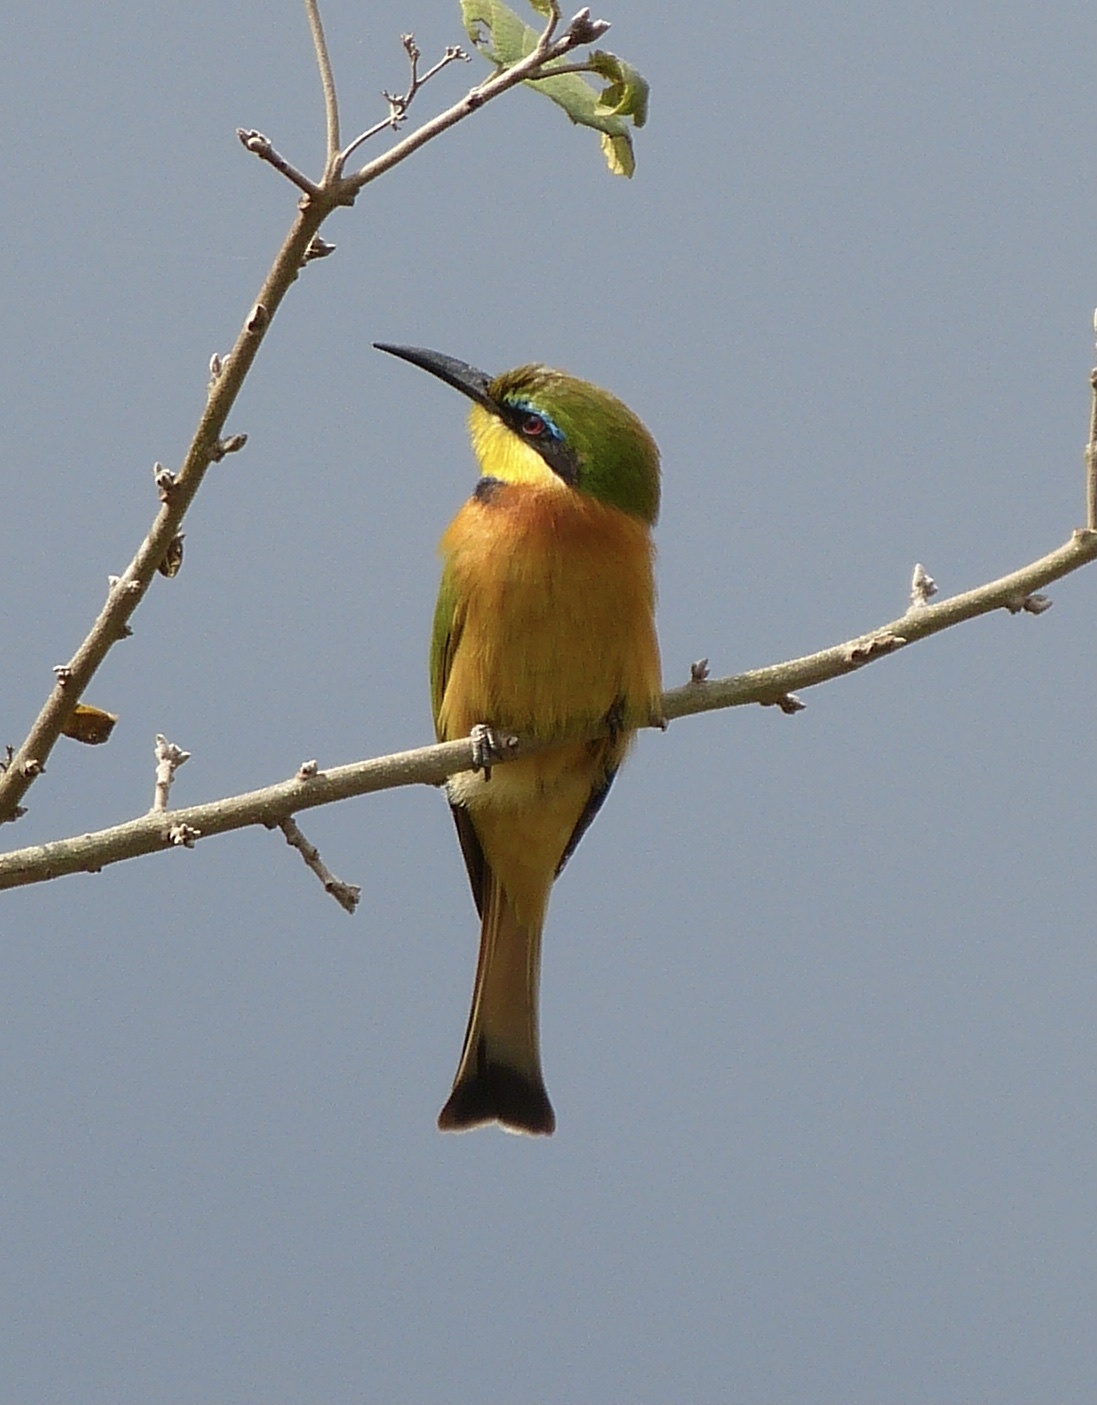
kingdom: Animalia
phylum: Chordata
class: Aves
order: Coraciiformes
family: Meropidae
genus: Merops
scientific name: Merops pusillus
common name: Little bee-eater
